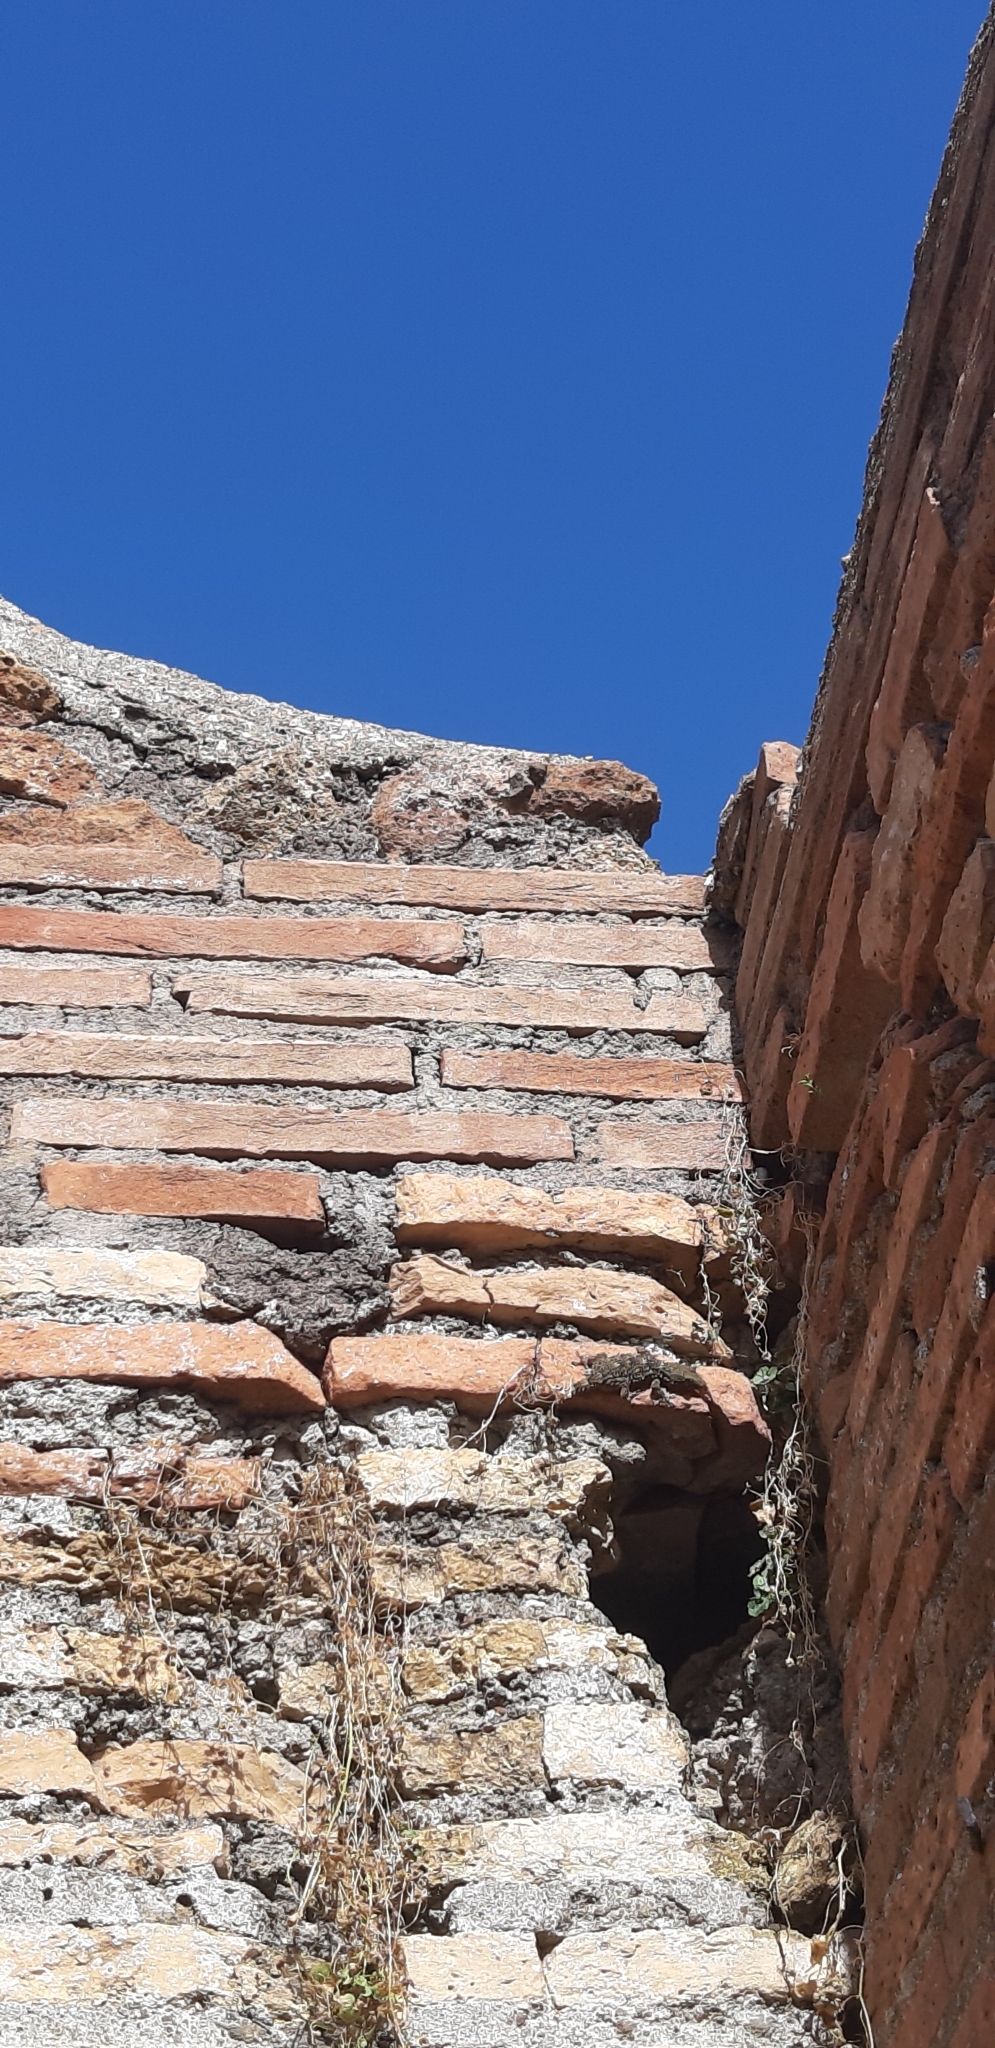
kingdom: Animalia
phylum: Chordata
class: Squamata
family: Phyllodactylidae
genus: Tarentola
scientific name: Tarentola mauritanica
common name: Moorish gecko
